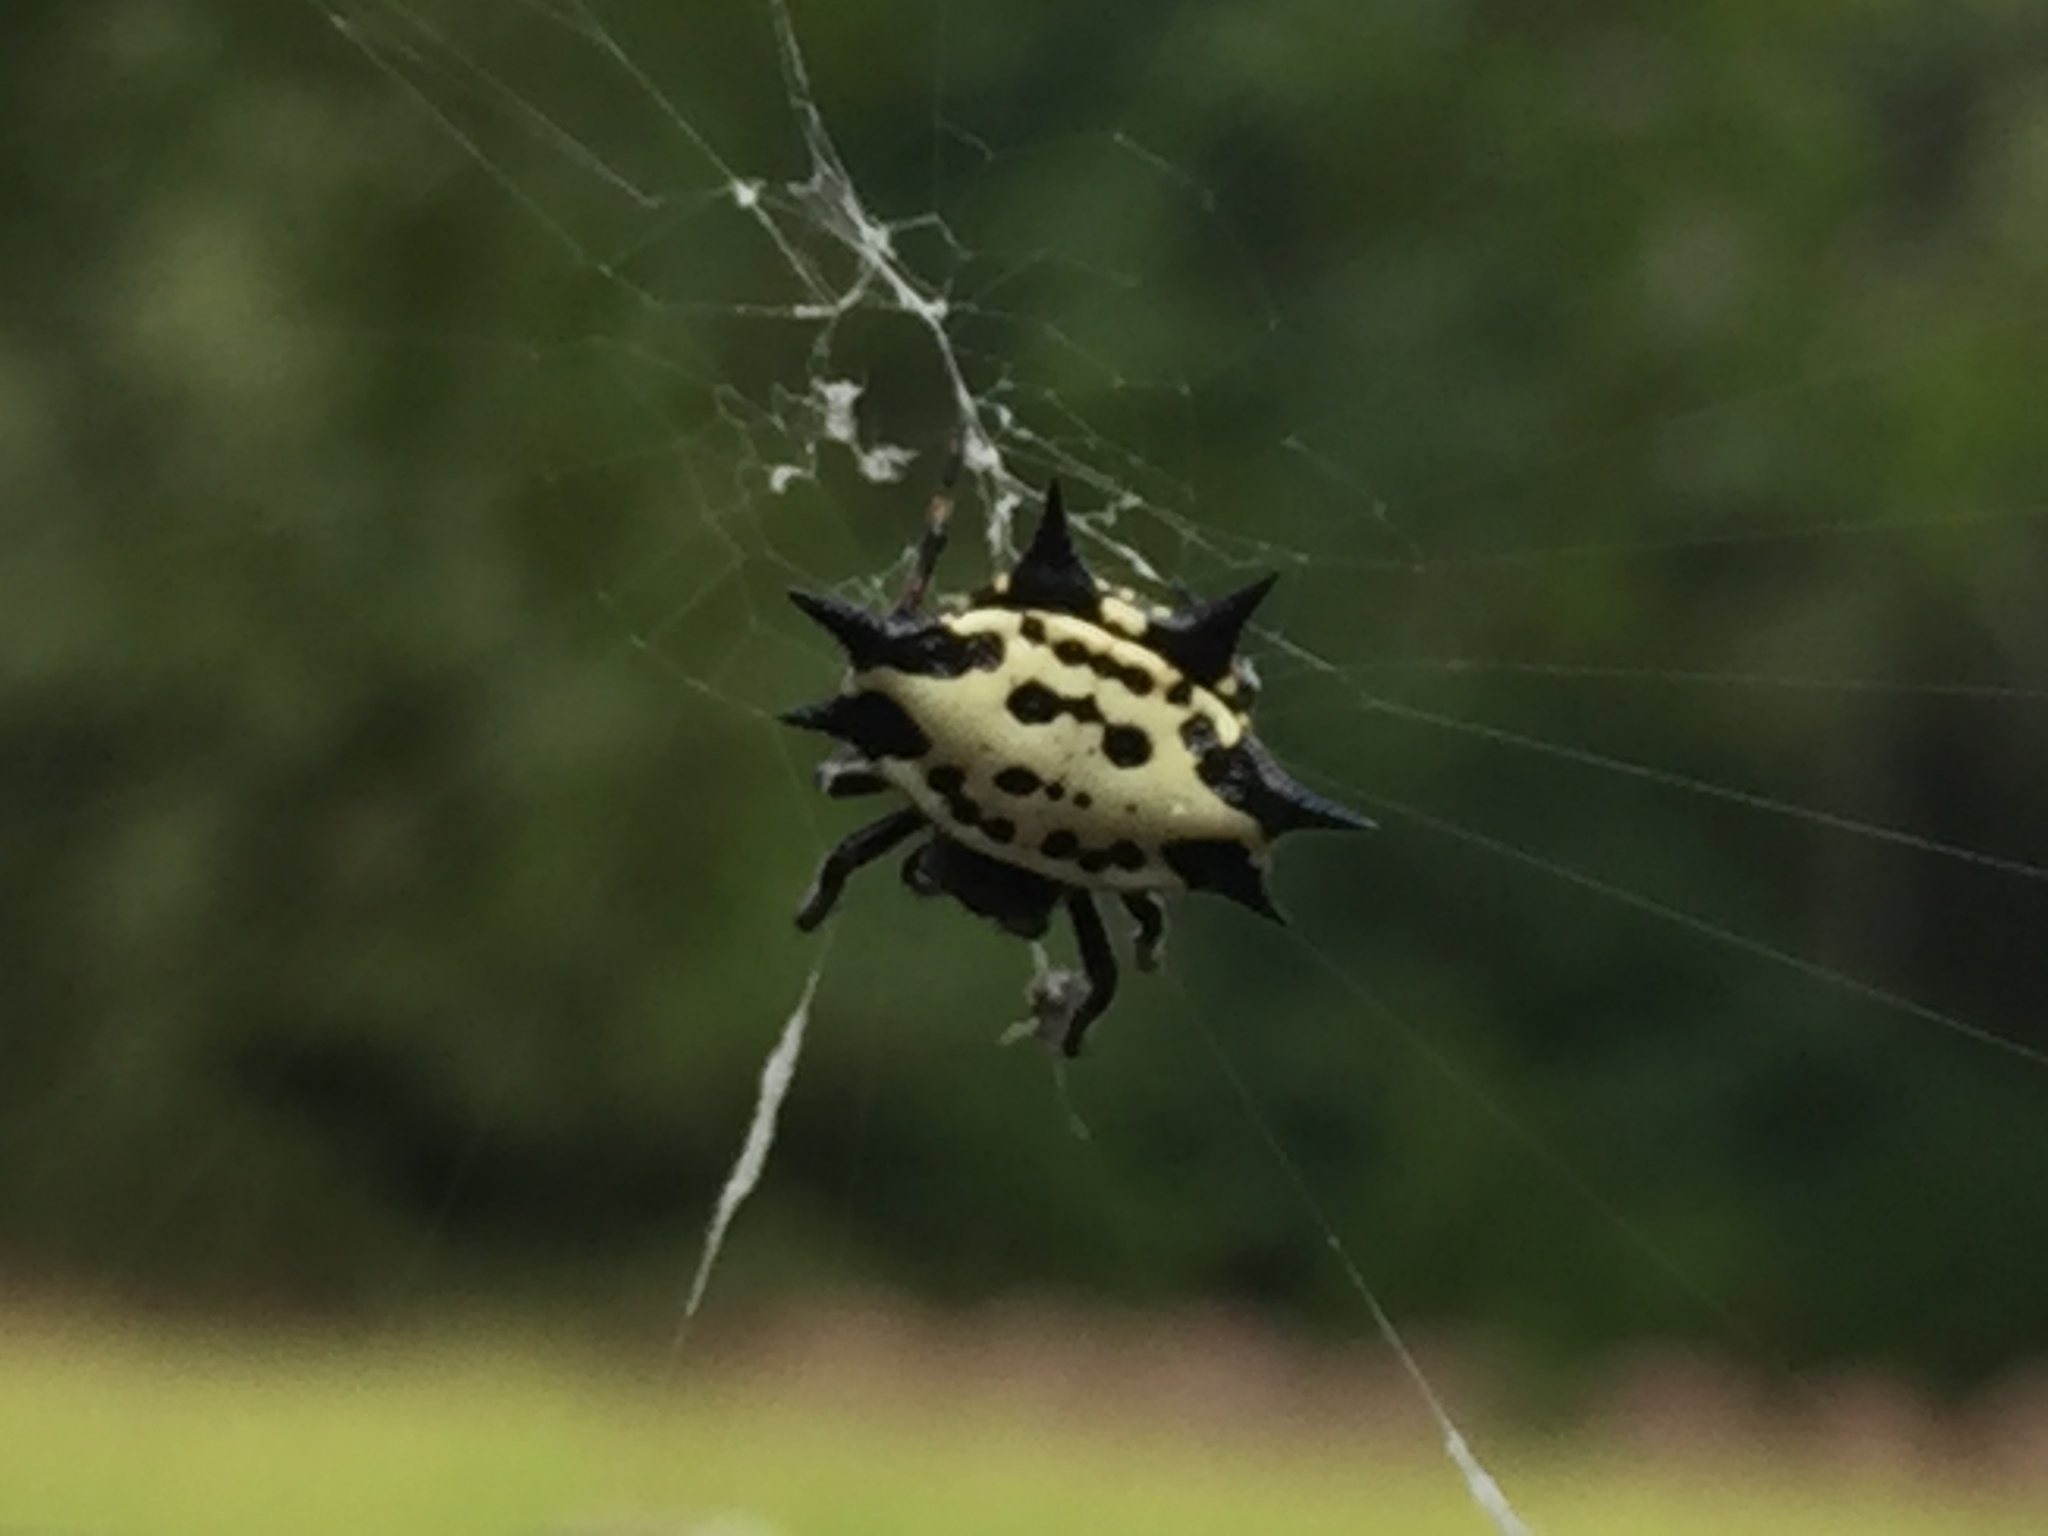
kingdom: Animalia
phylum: Arthropoda
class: Arachnida
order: Araneae
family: Araneidae
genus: Gasteracantha
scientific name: Gasteracantha cancriformis
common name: Orb weavers
